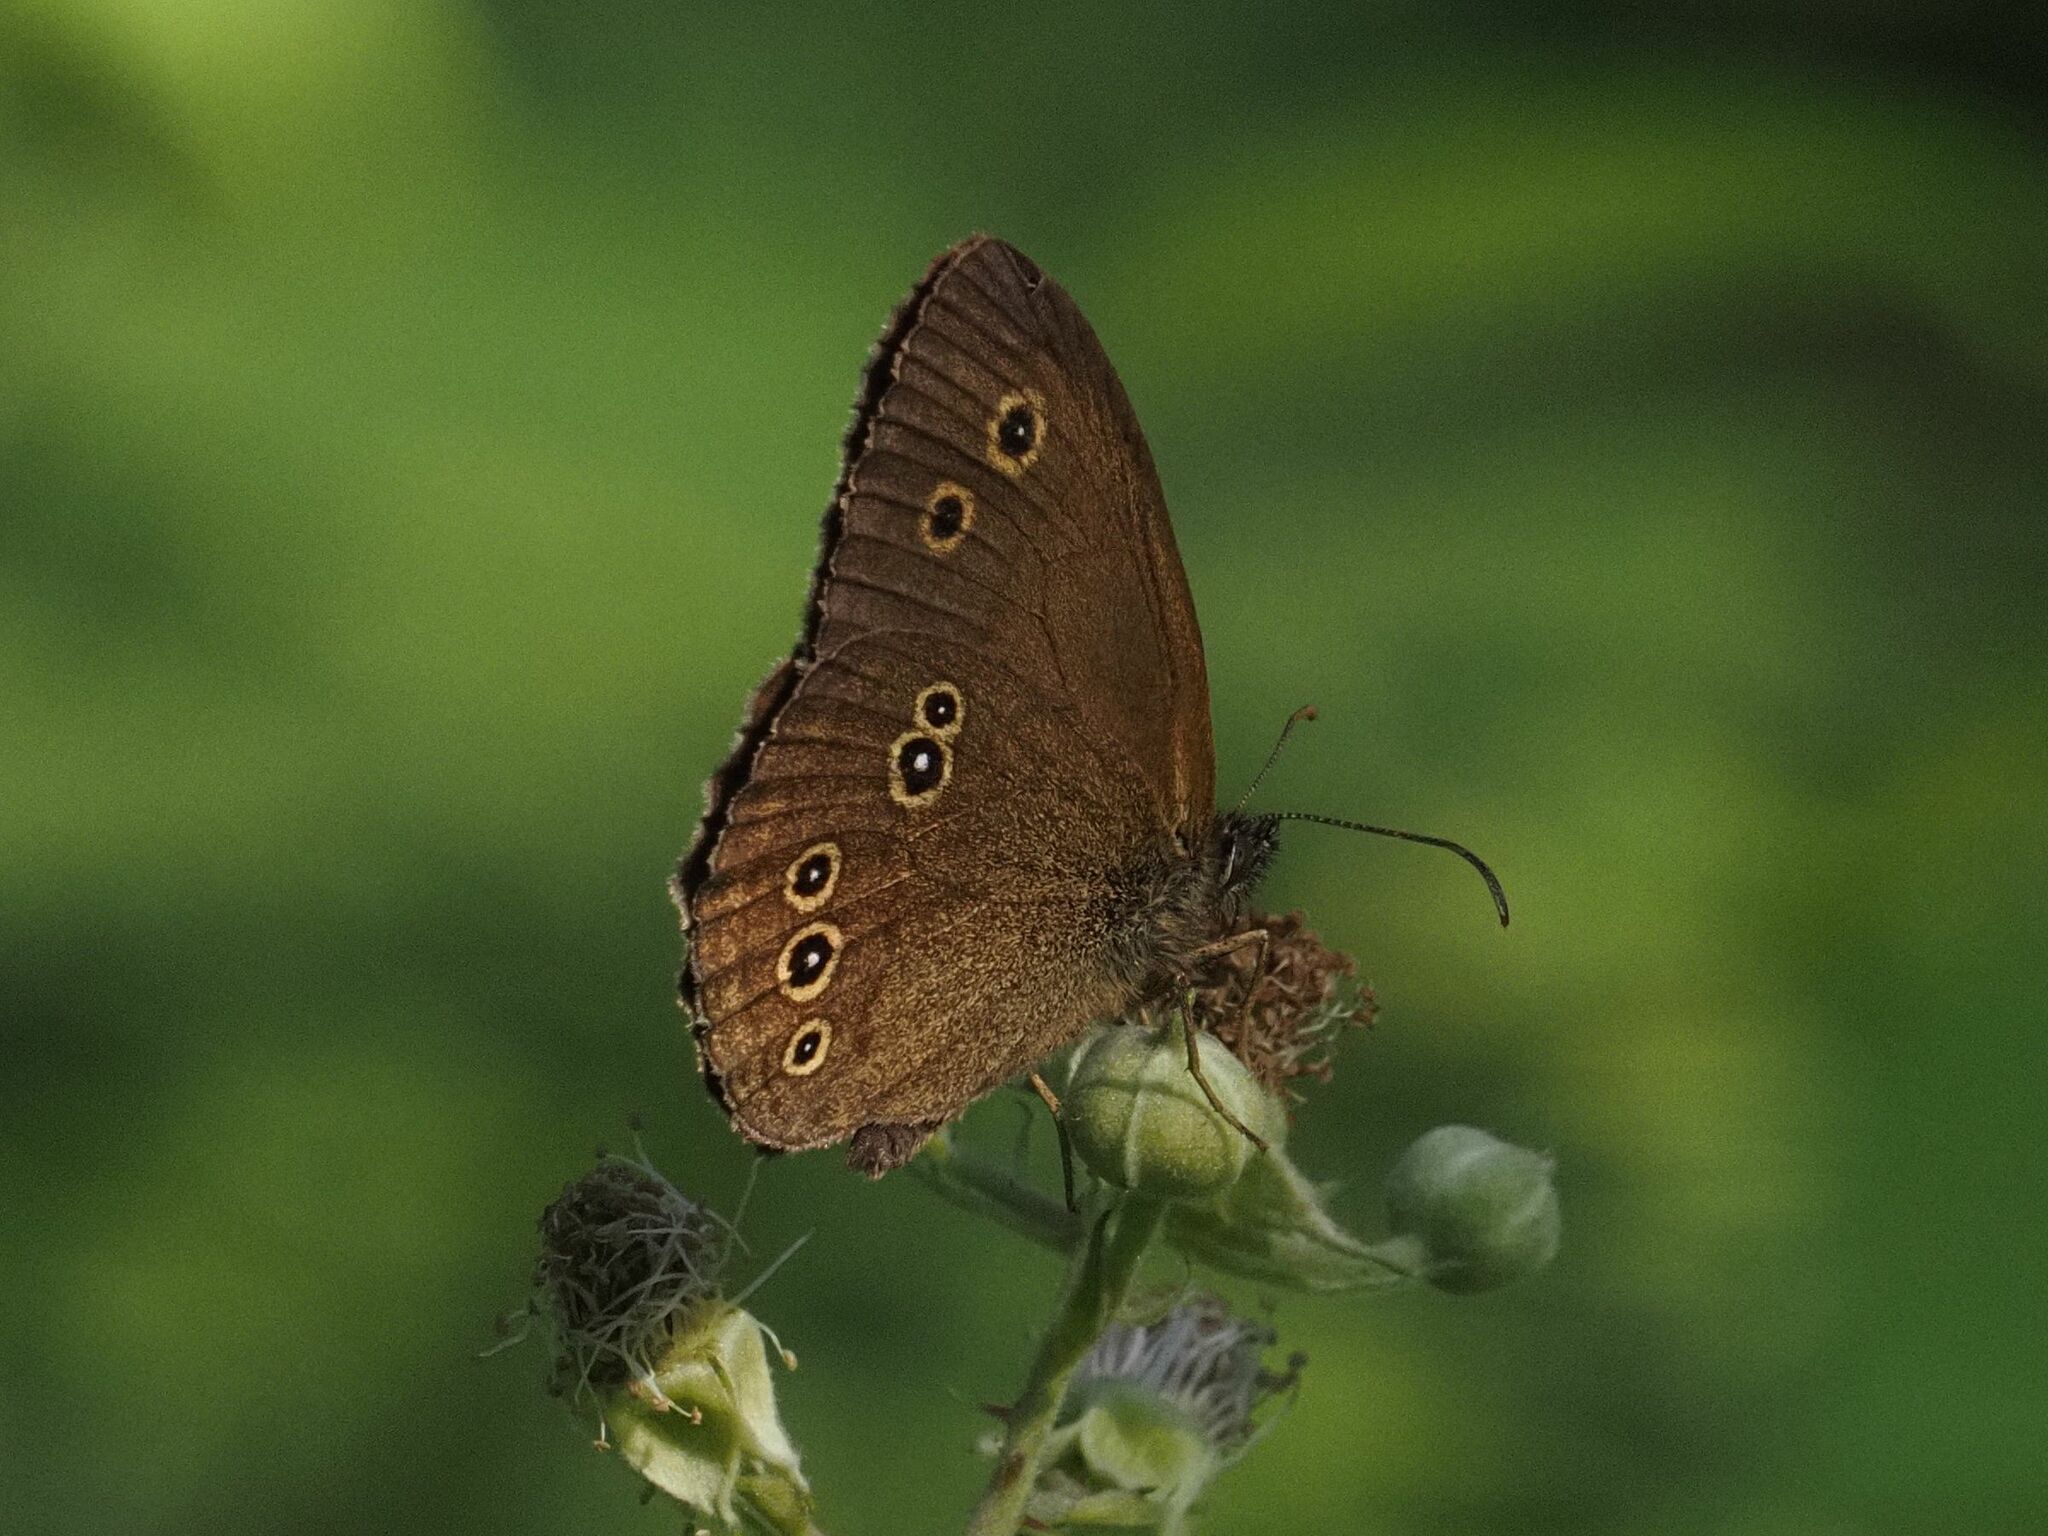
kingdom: Animalia
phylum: Arthropoda
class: Insecta
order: Lepidoptera
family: Nymphalidae
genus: Aphantopus
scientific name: Aphantopus hyperantus
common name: Ringlet
